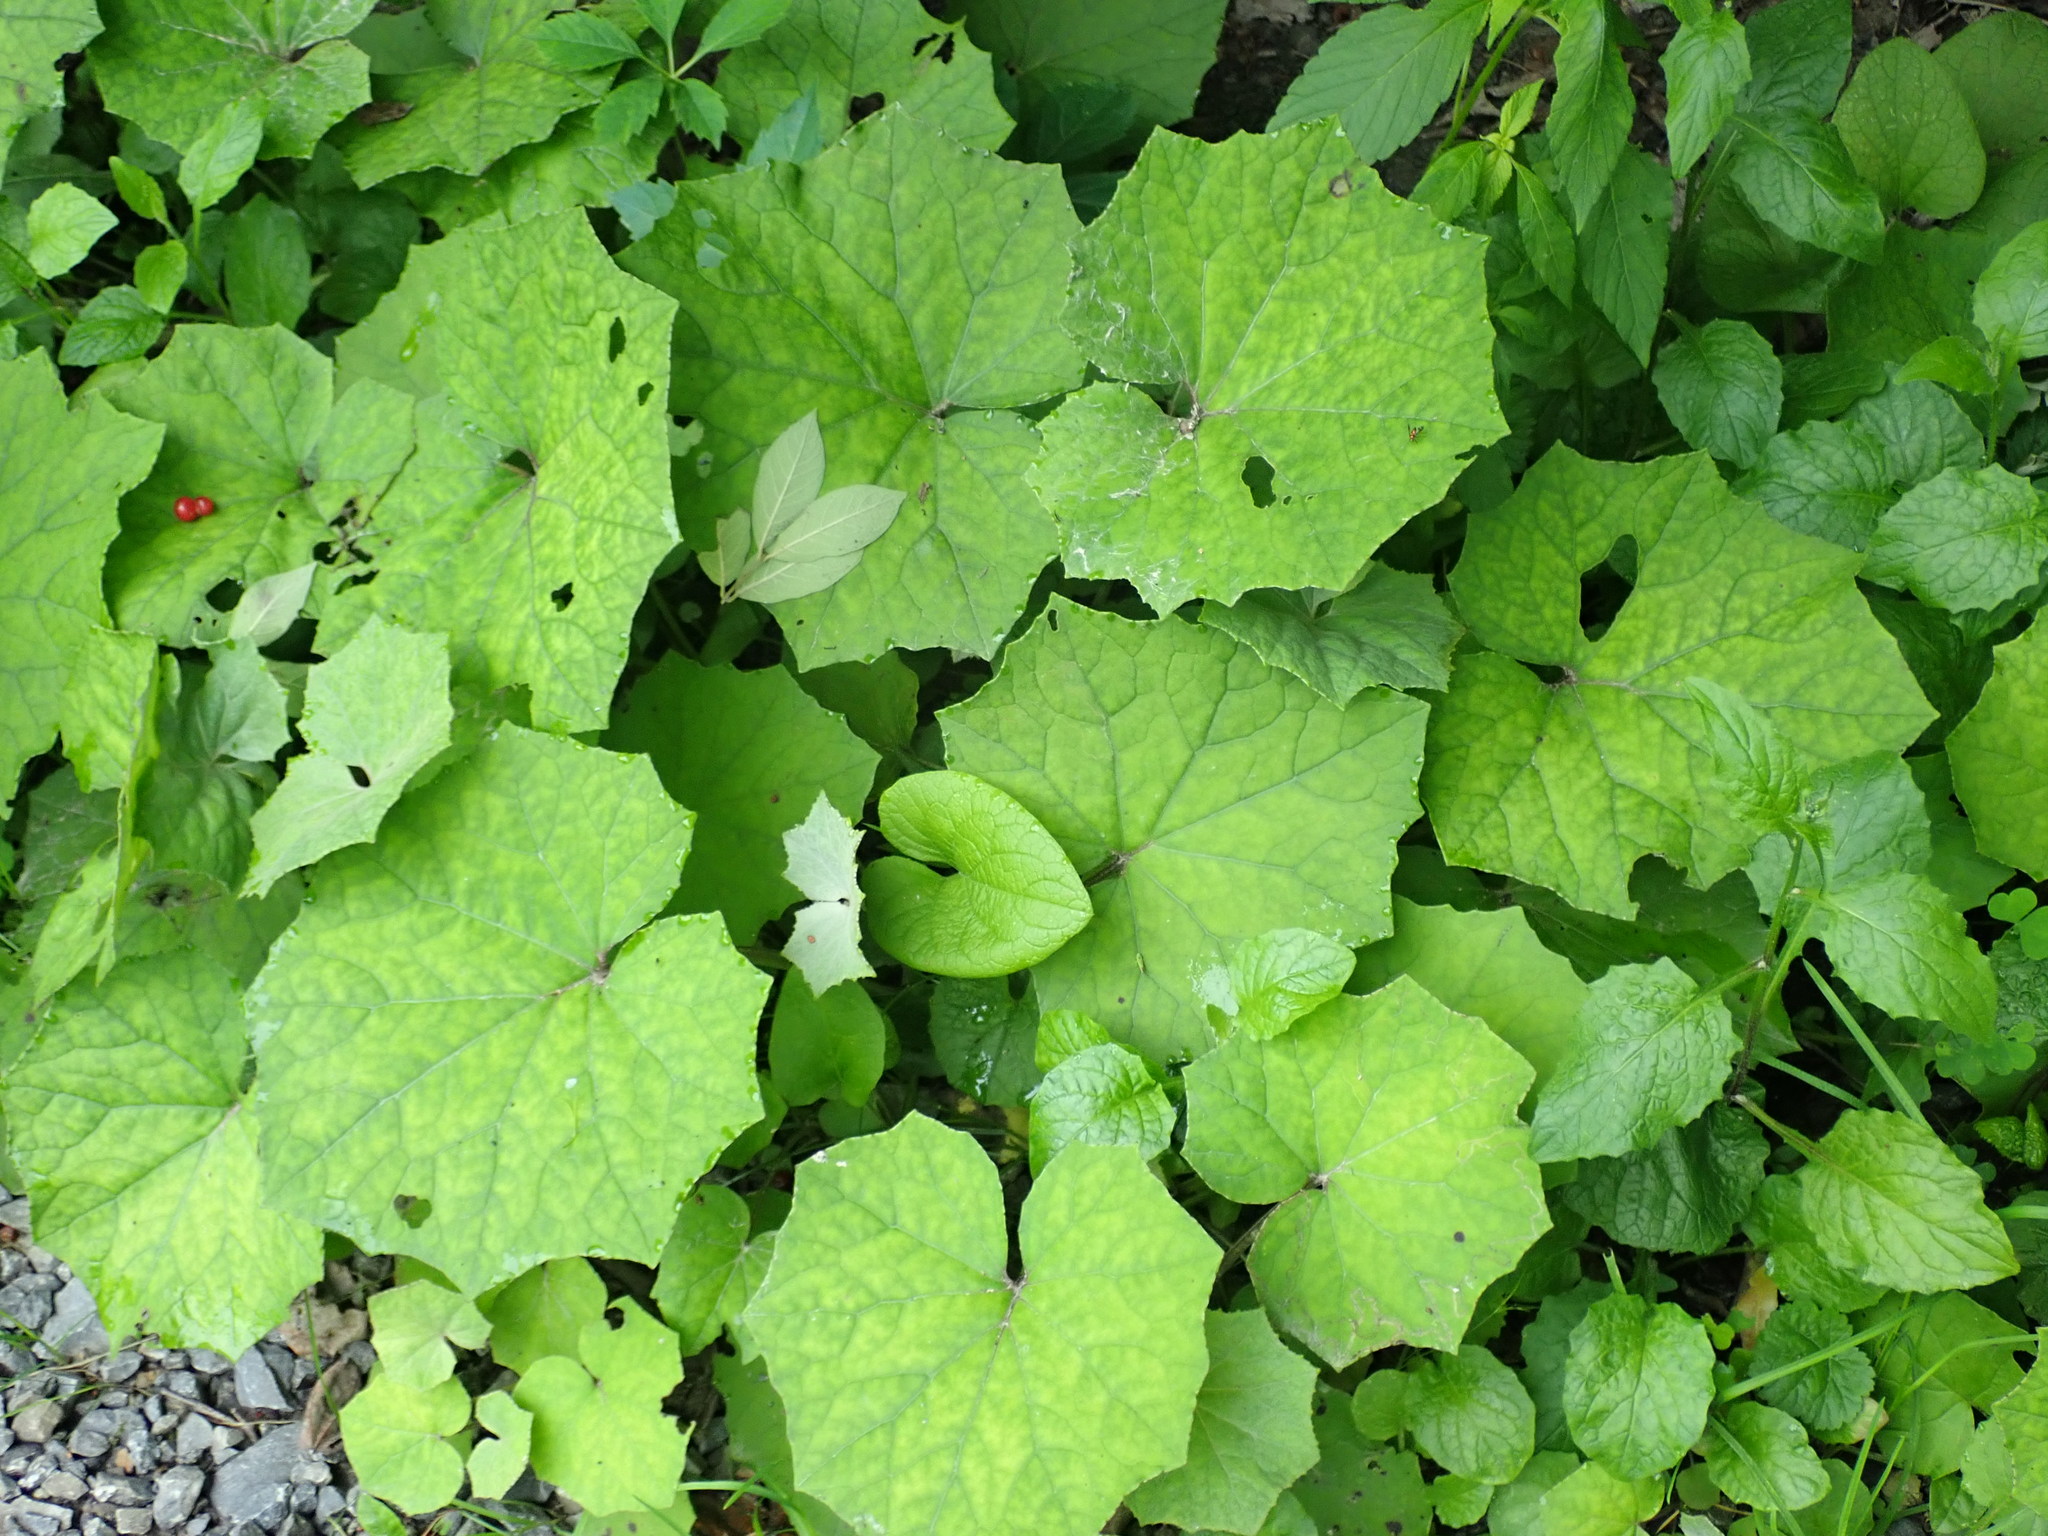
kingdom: Plantae
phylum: Tracheophyta
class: Magnoliopsida
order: Asterales
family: Asteraceae
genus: Tussilago
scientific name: Tussilago farfara
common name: Coltsfoot
